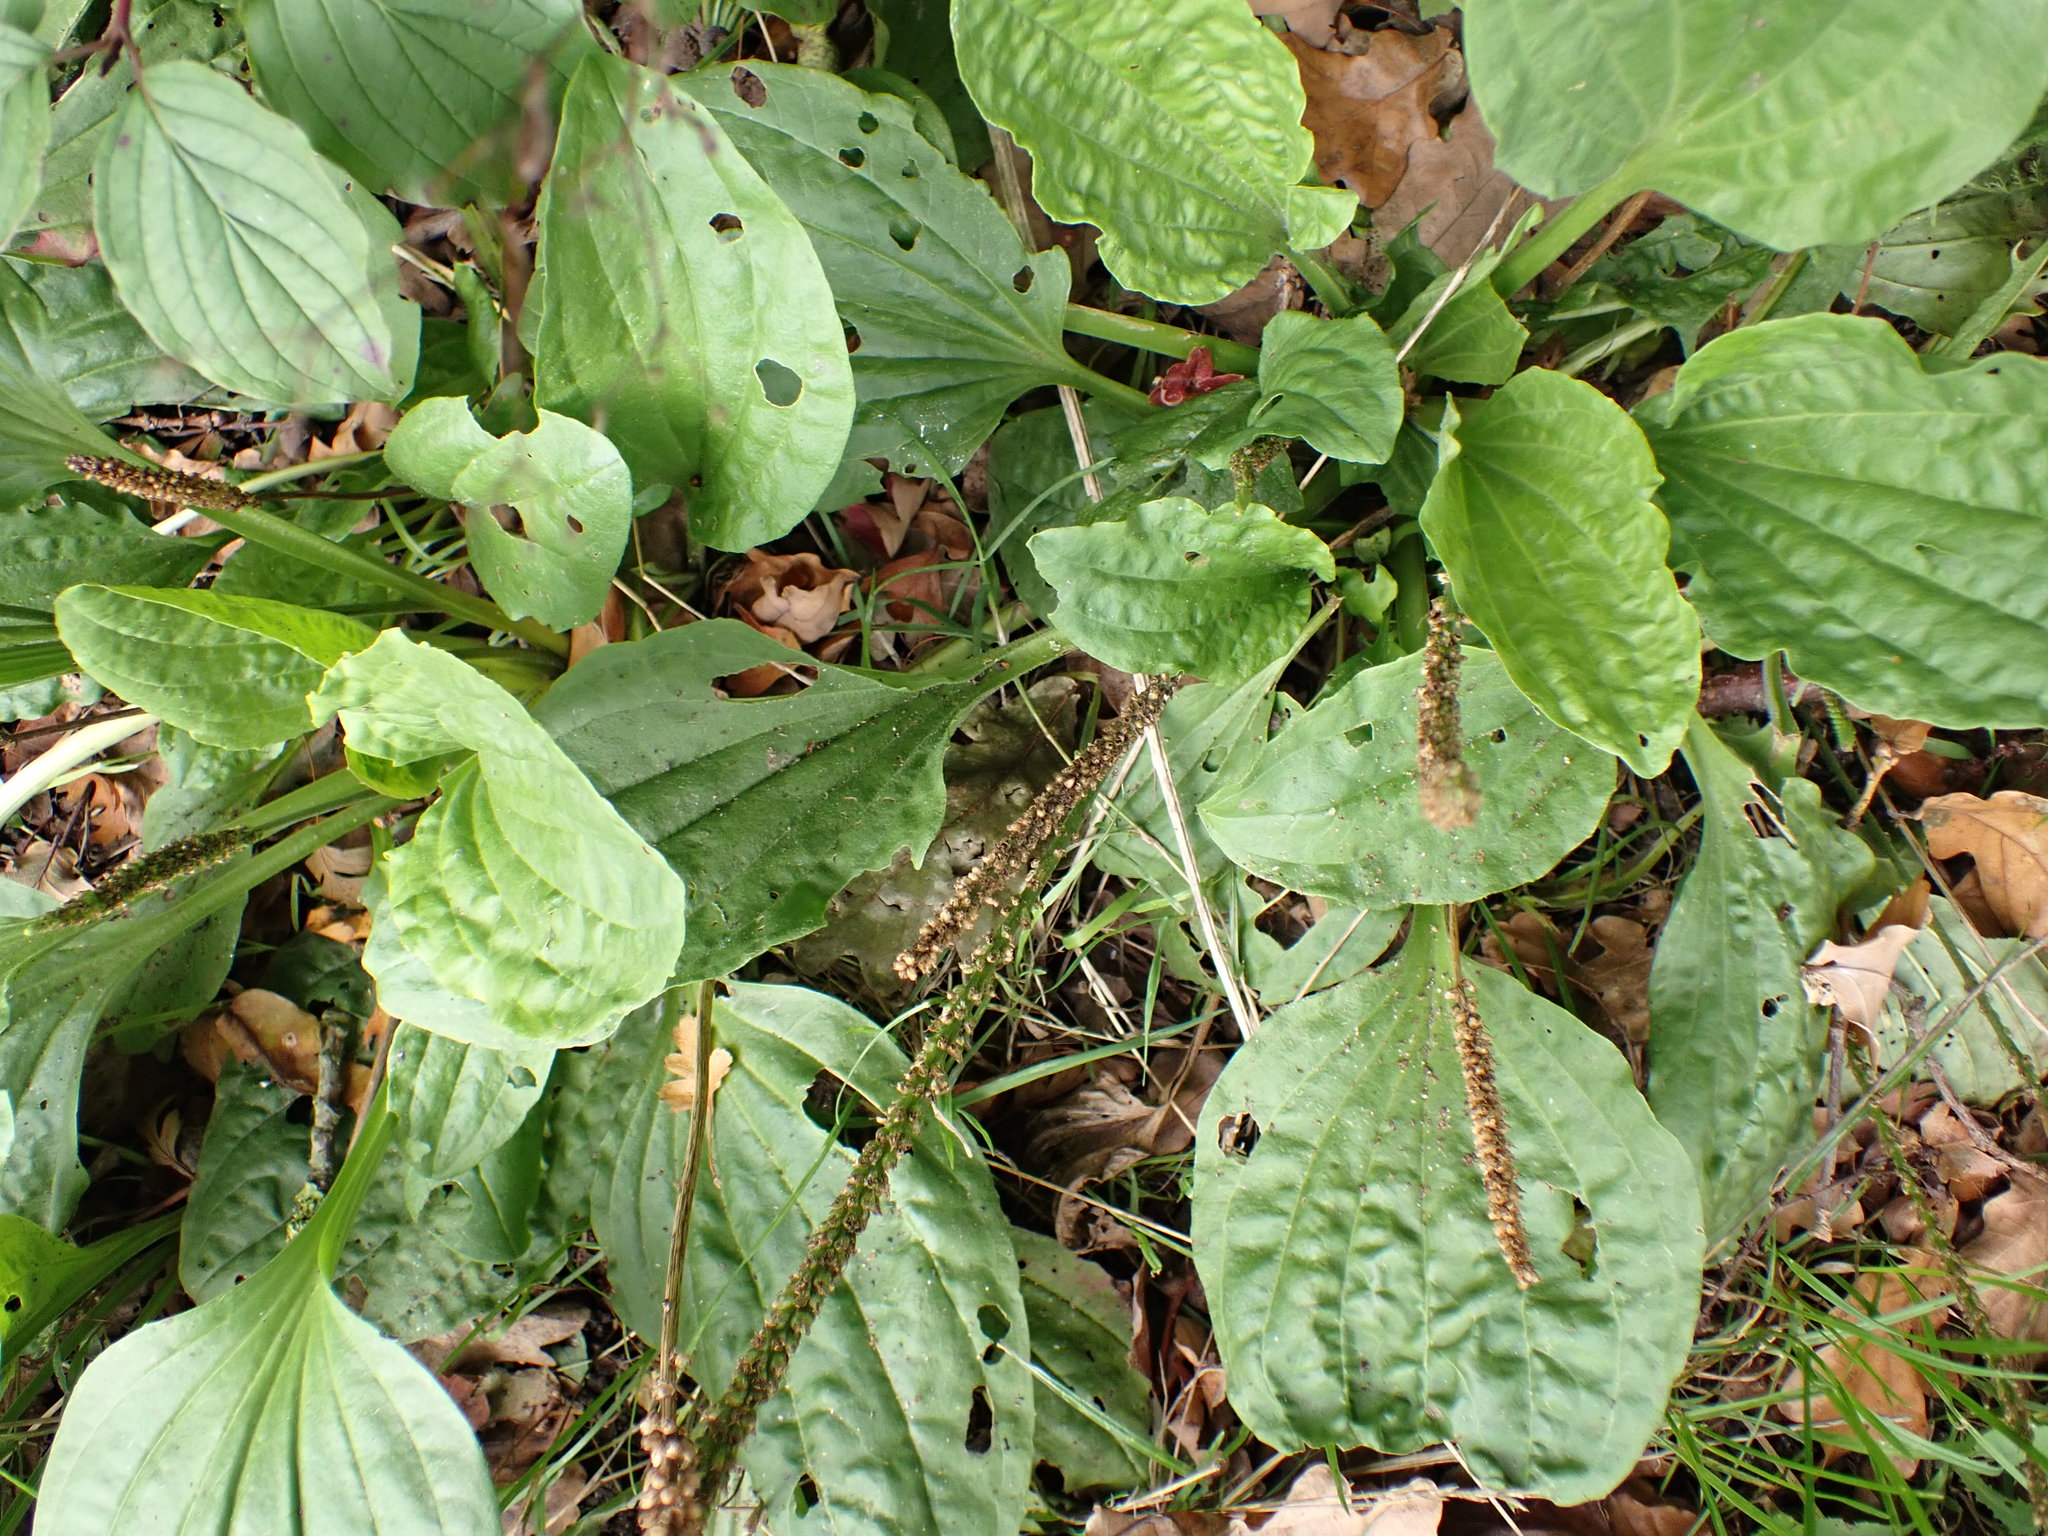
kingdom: Plantae
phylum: Tracheophyta
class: Magnoliopsida
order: Lamiales
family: Plantaginaceae
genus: Plantago
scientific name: Plantago major
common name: Common plantain
